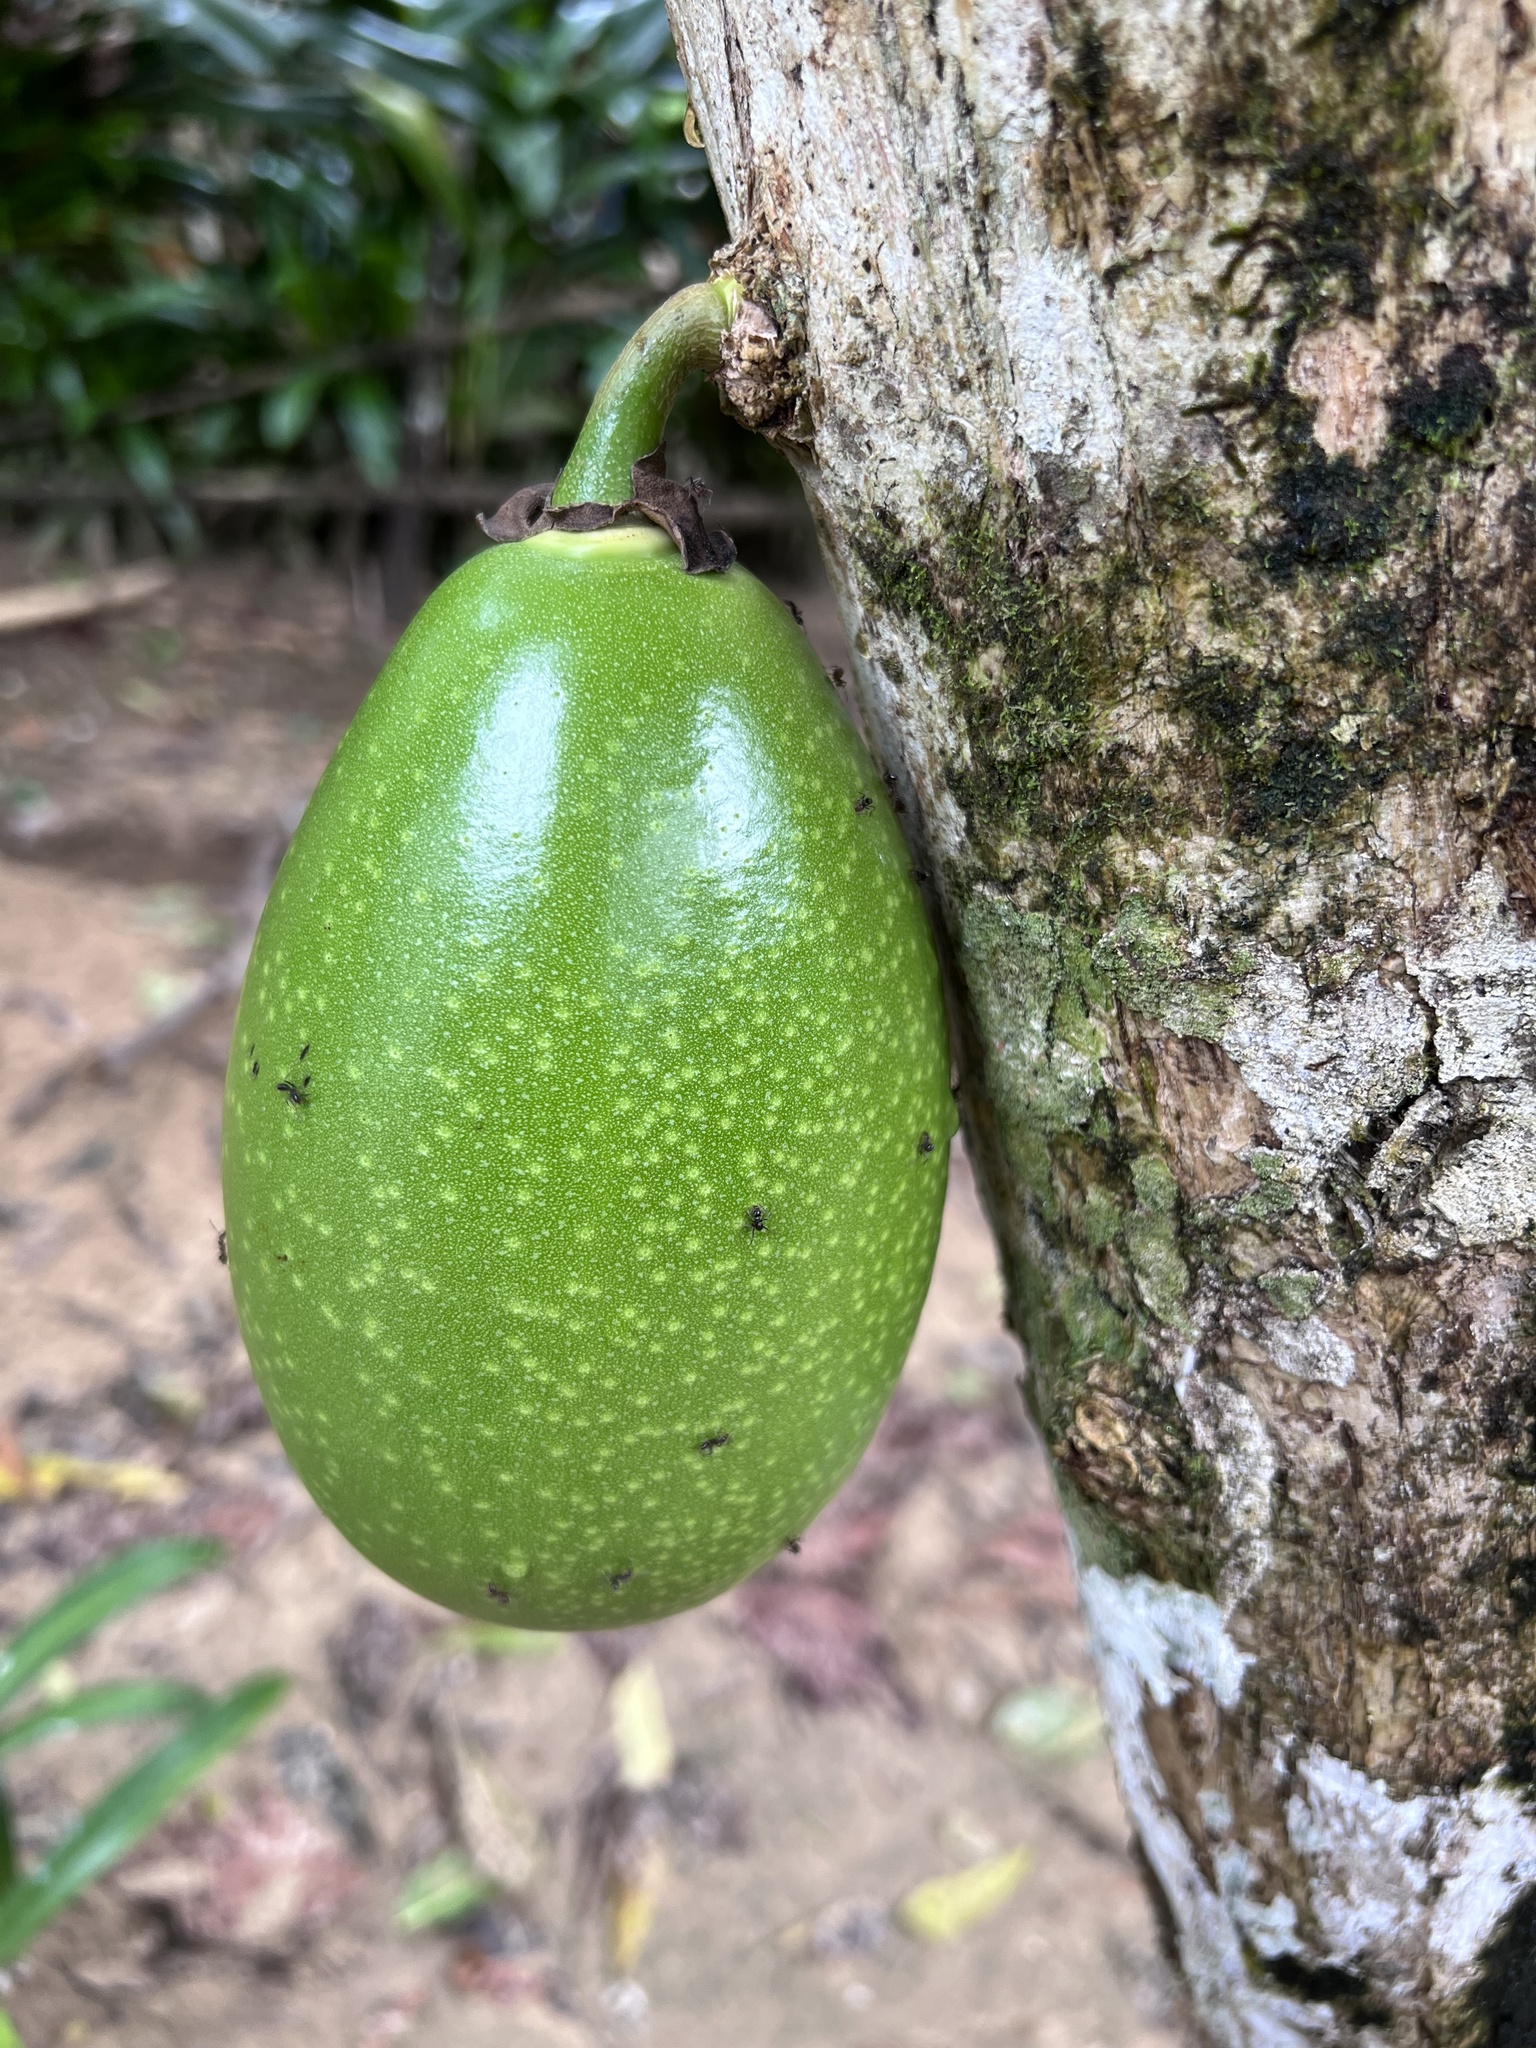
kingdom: Plantae
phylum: Tracheophyta
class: Magnoliopsida
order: Lamiales
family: Bignoniaceae
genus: Crescentia
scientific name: Crescentia cujete
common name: Calabash
